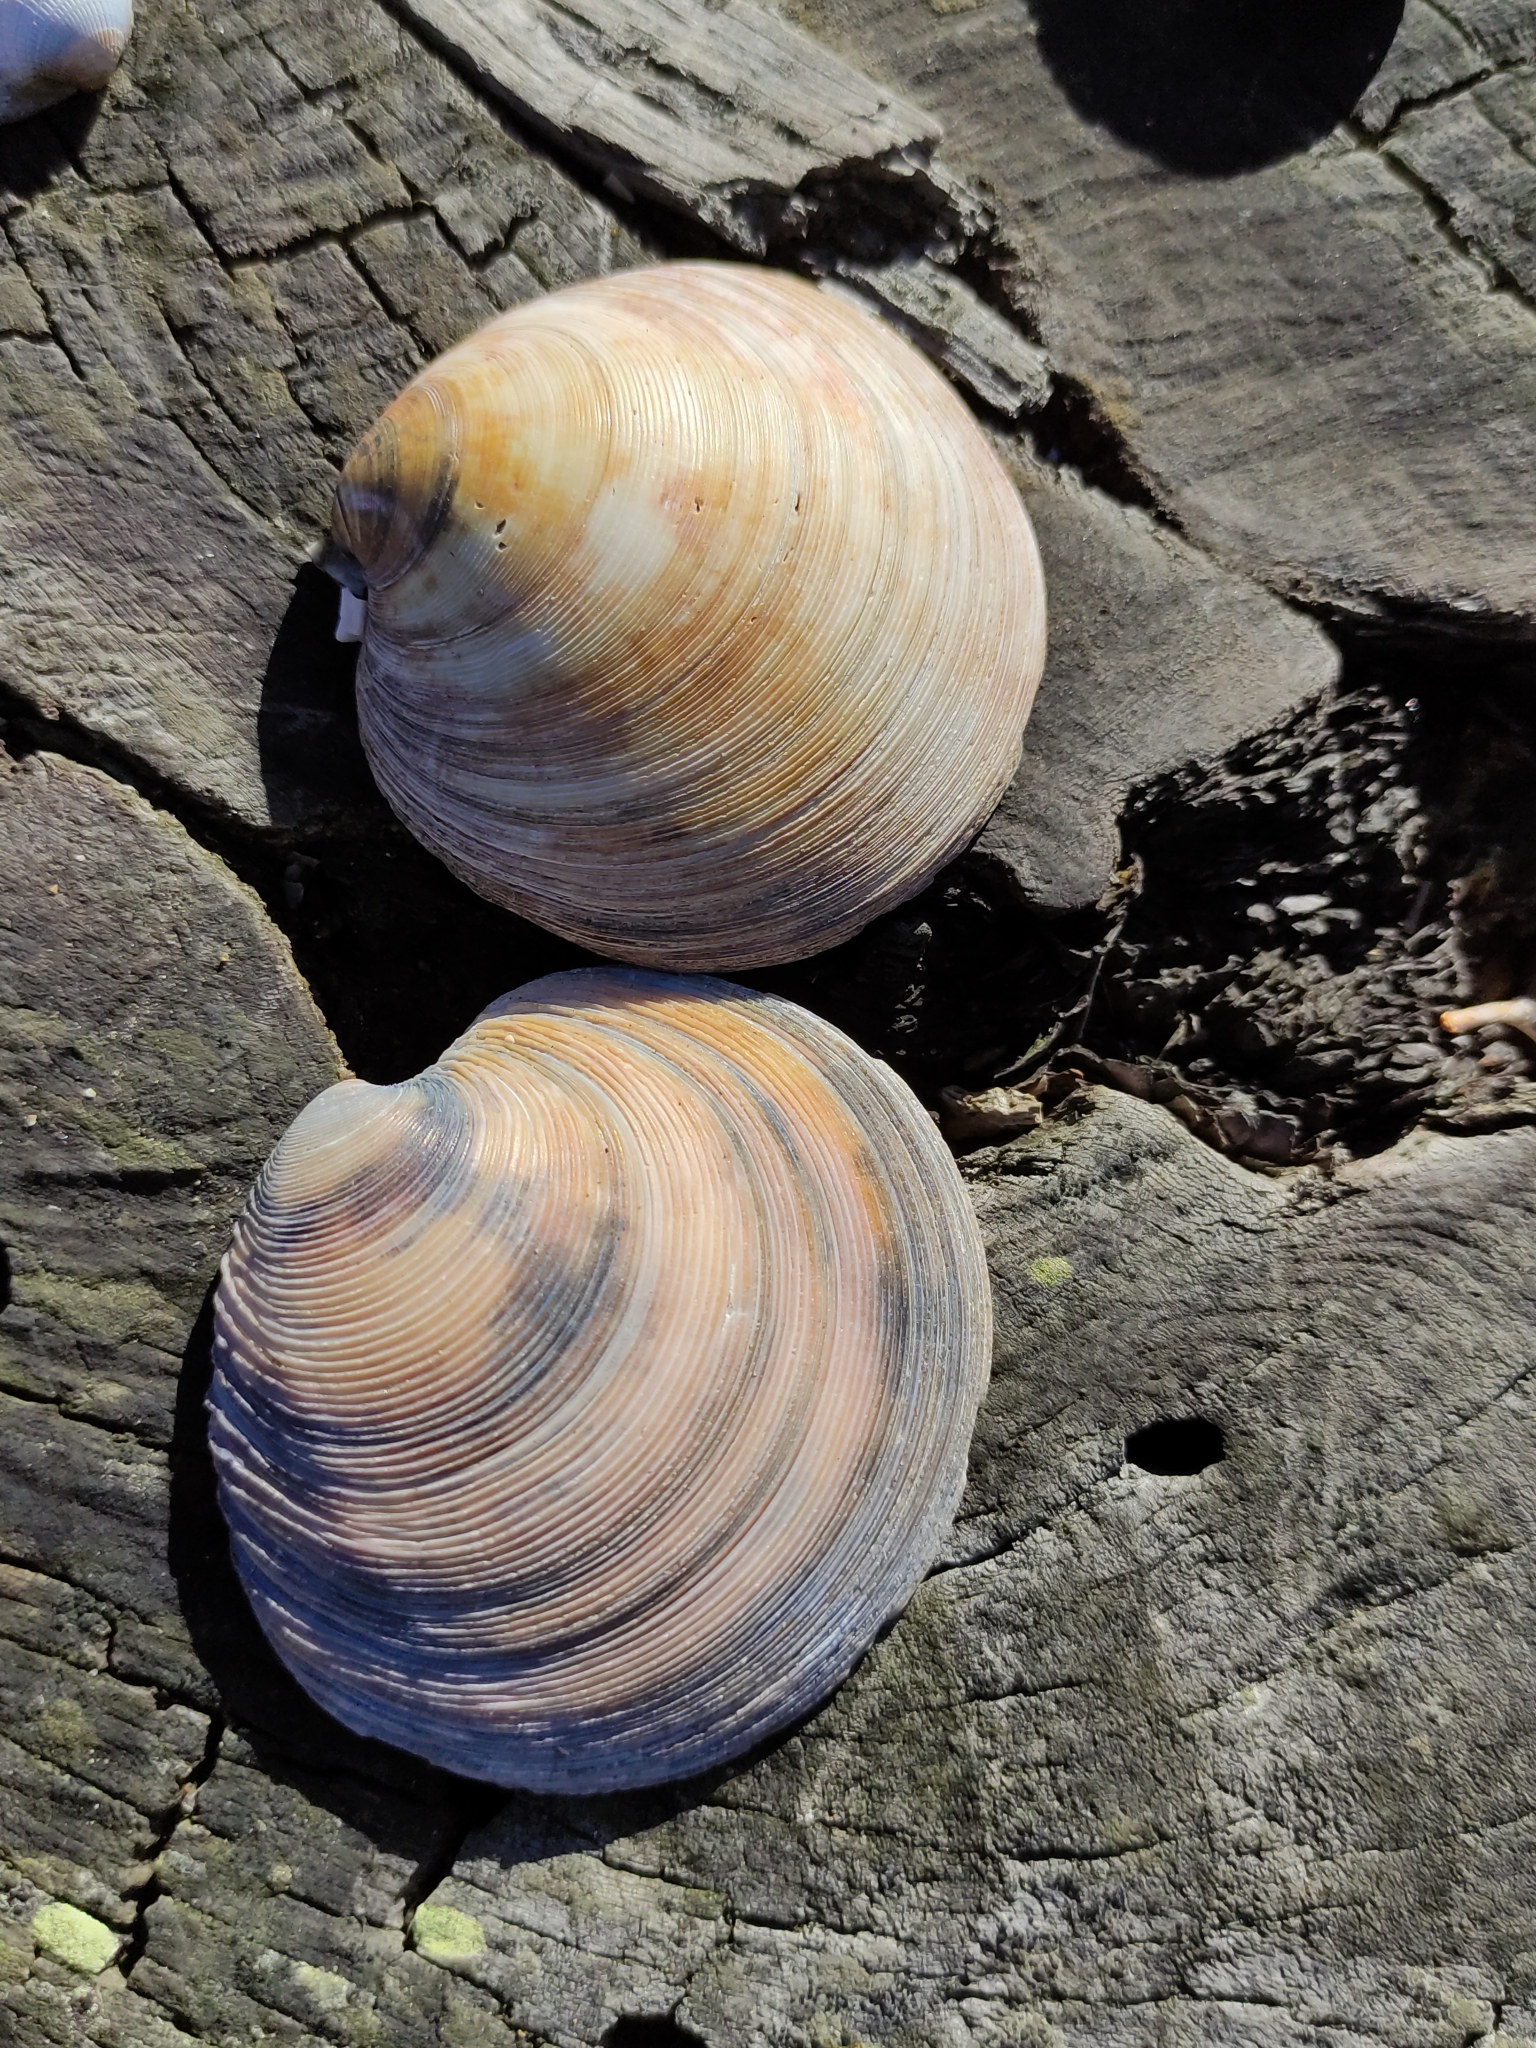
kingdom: Animalia
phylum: Mollusca
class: Bivalvia
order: Venerida
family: Veneridae
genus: Dosinia
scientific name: Dosinia anus
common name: Old-woman dosinia
